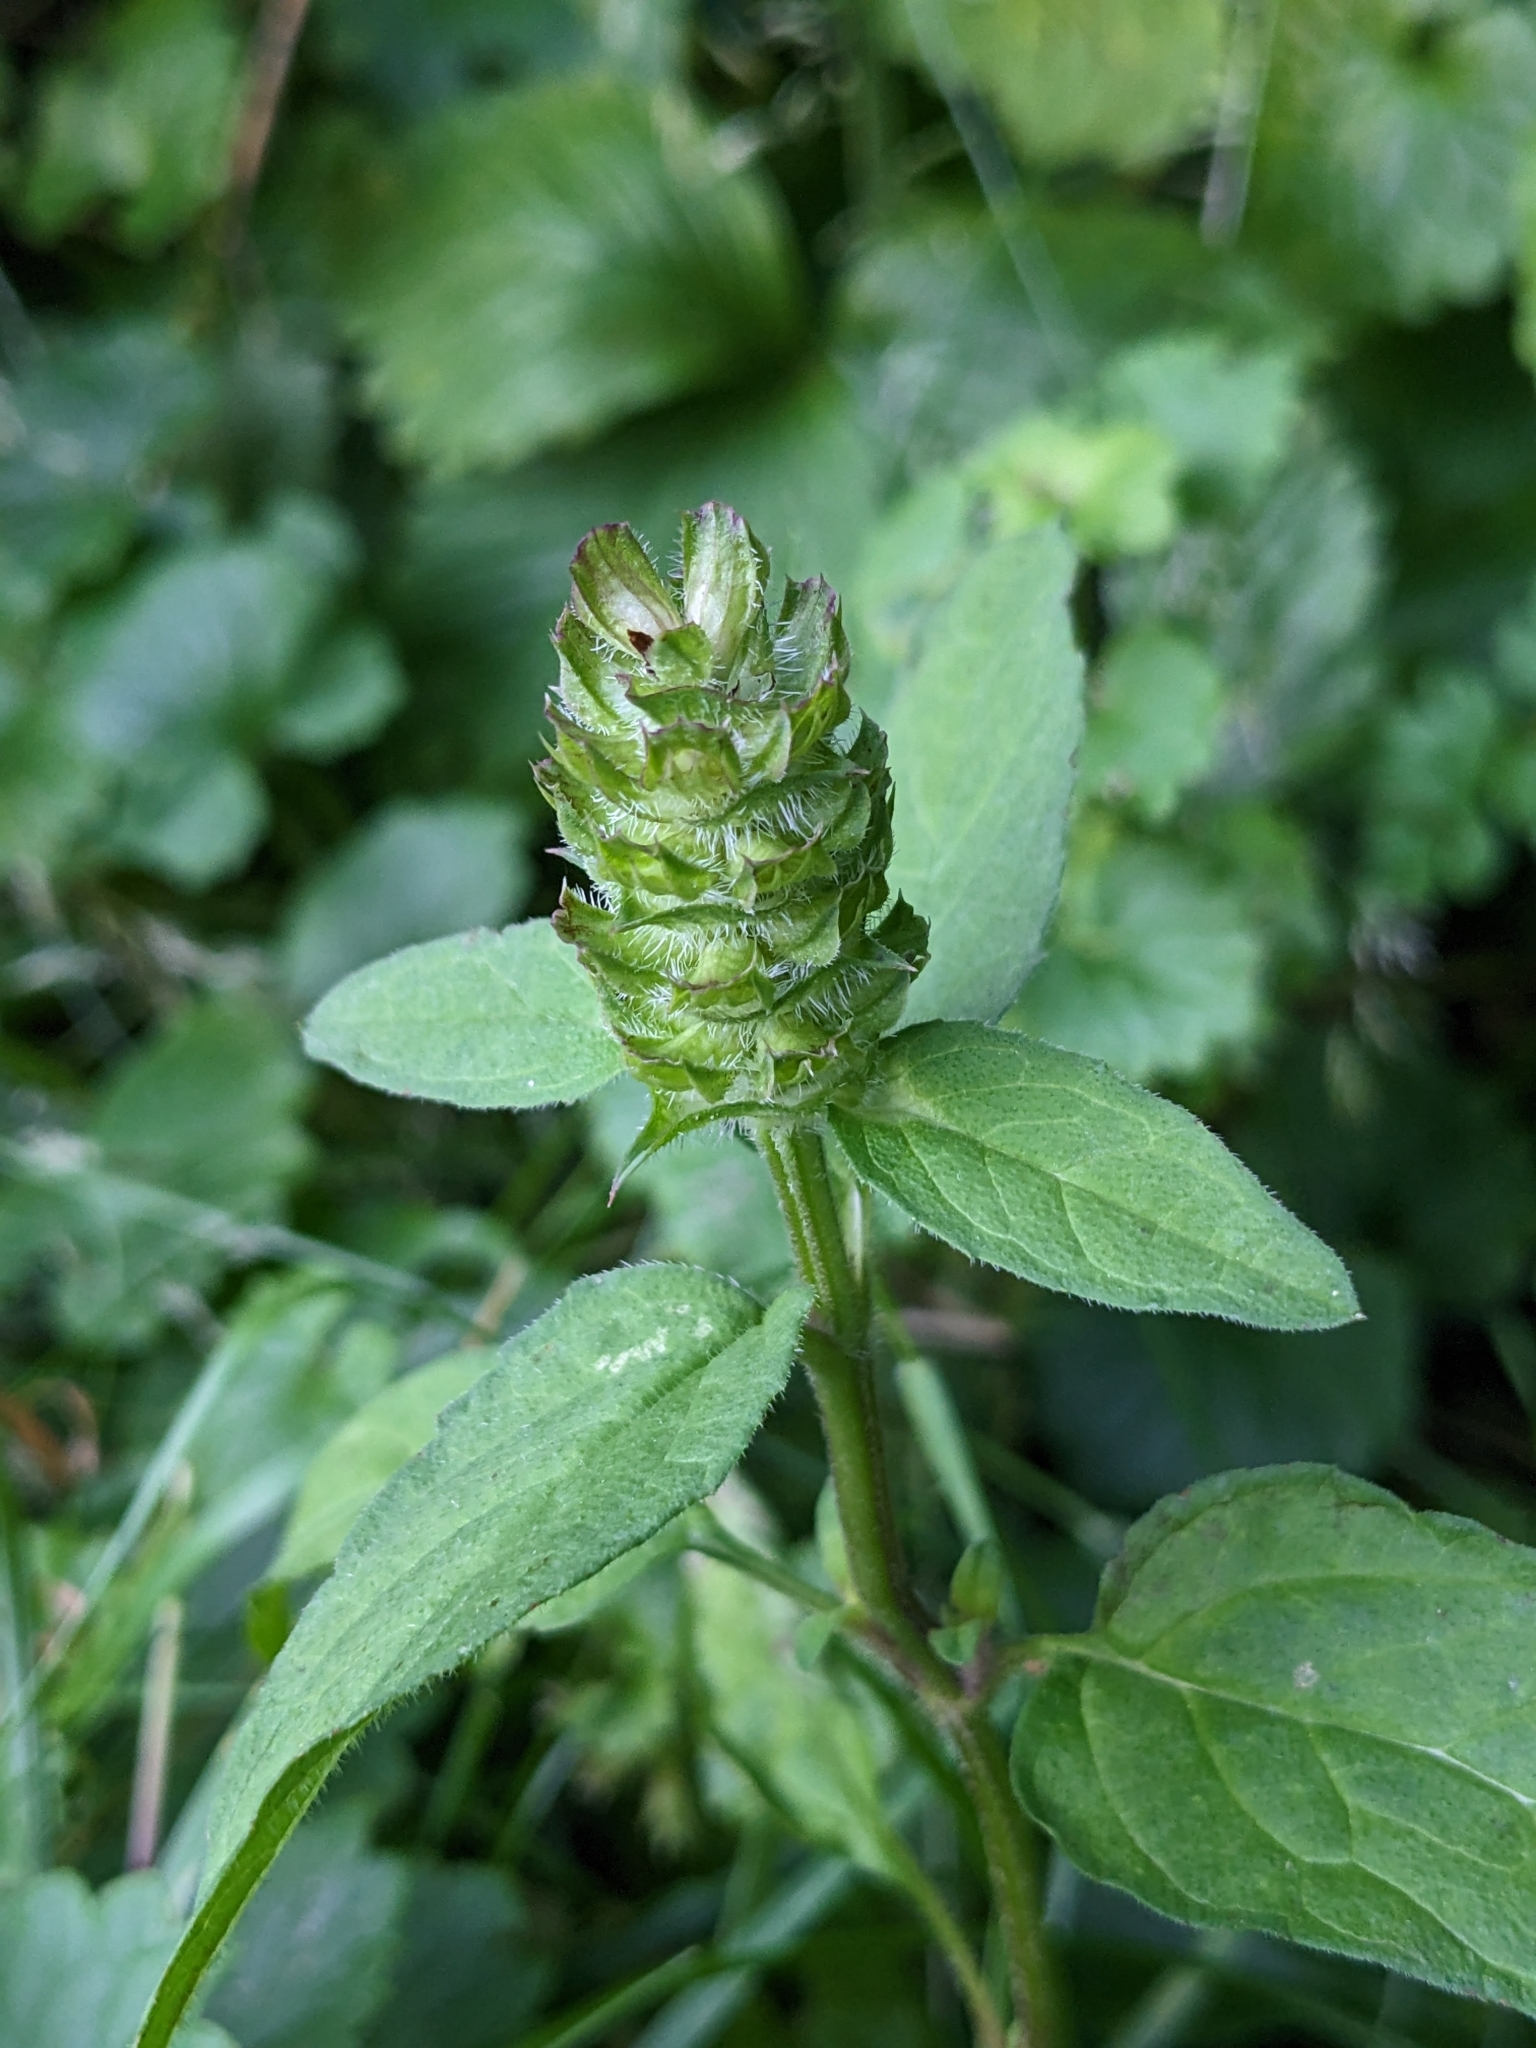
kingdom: Plantae
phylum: Tracheophyta
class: Magnoliopsida
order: Lamiales
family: Lamiaceae
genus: Prunella
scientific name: Prunella vulgaris
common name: Heal-all
